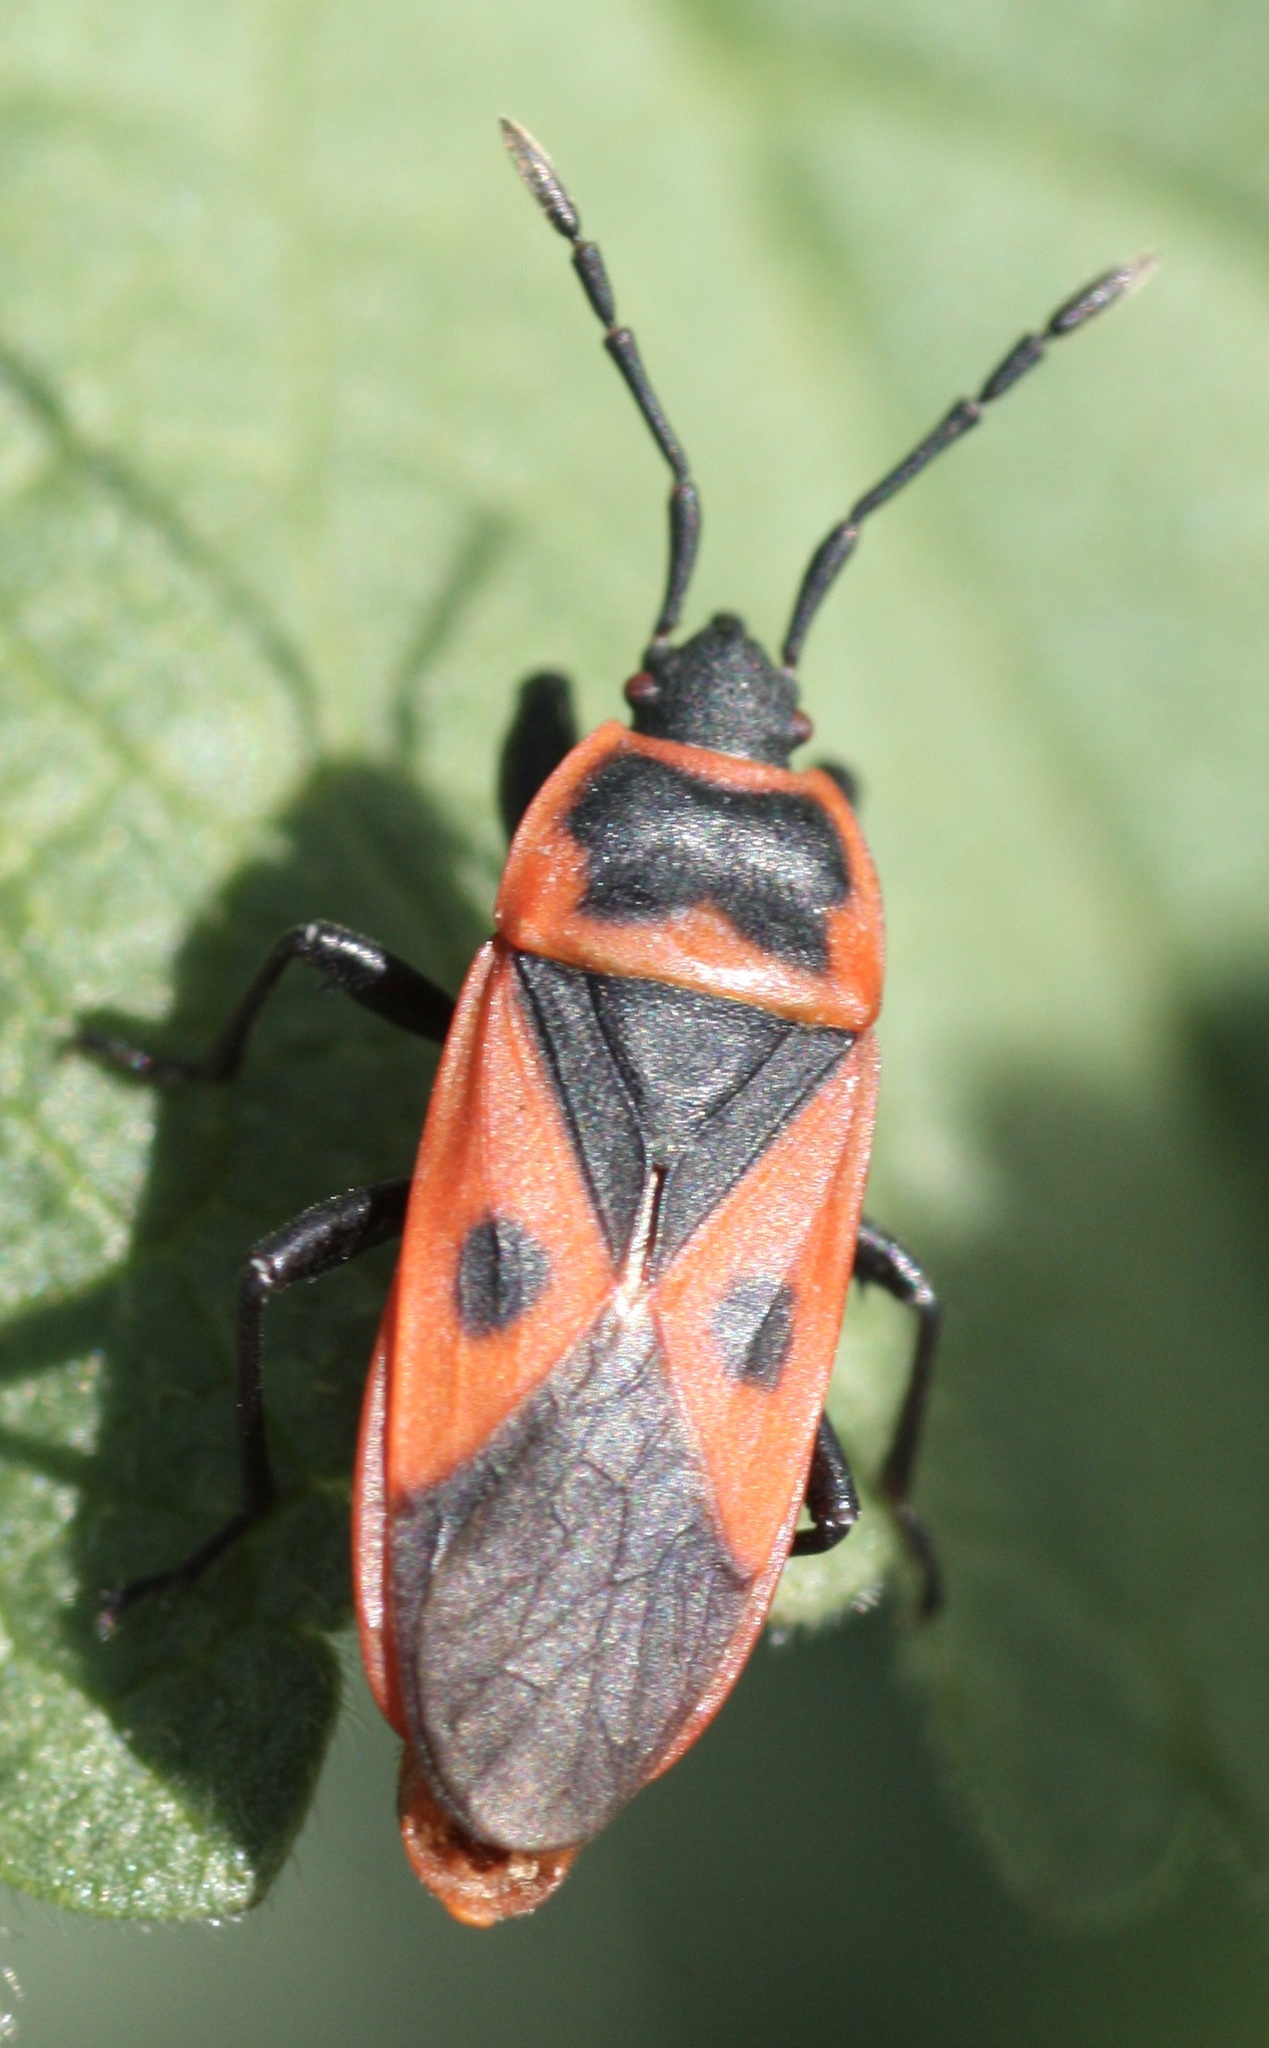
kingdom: Animalia
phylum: Arthropoda
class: Insecta
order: Hemiptera
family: Pyrrhocoridae
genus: Scantius
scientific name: Scantius aegyptius
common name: Red bug
